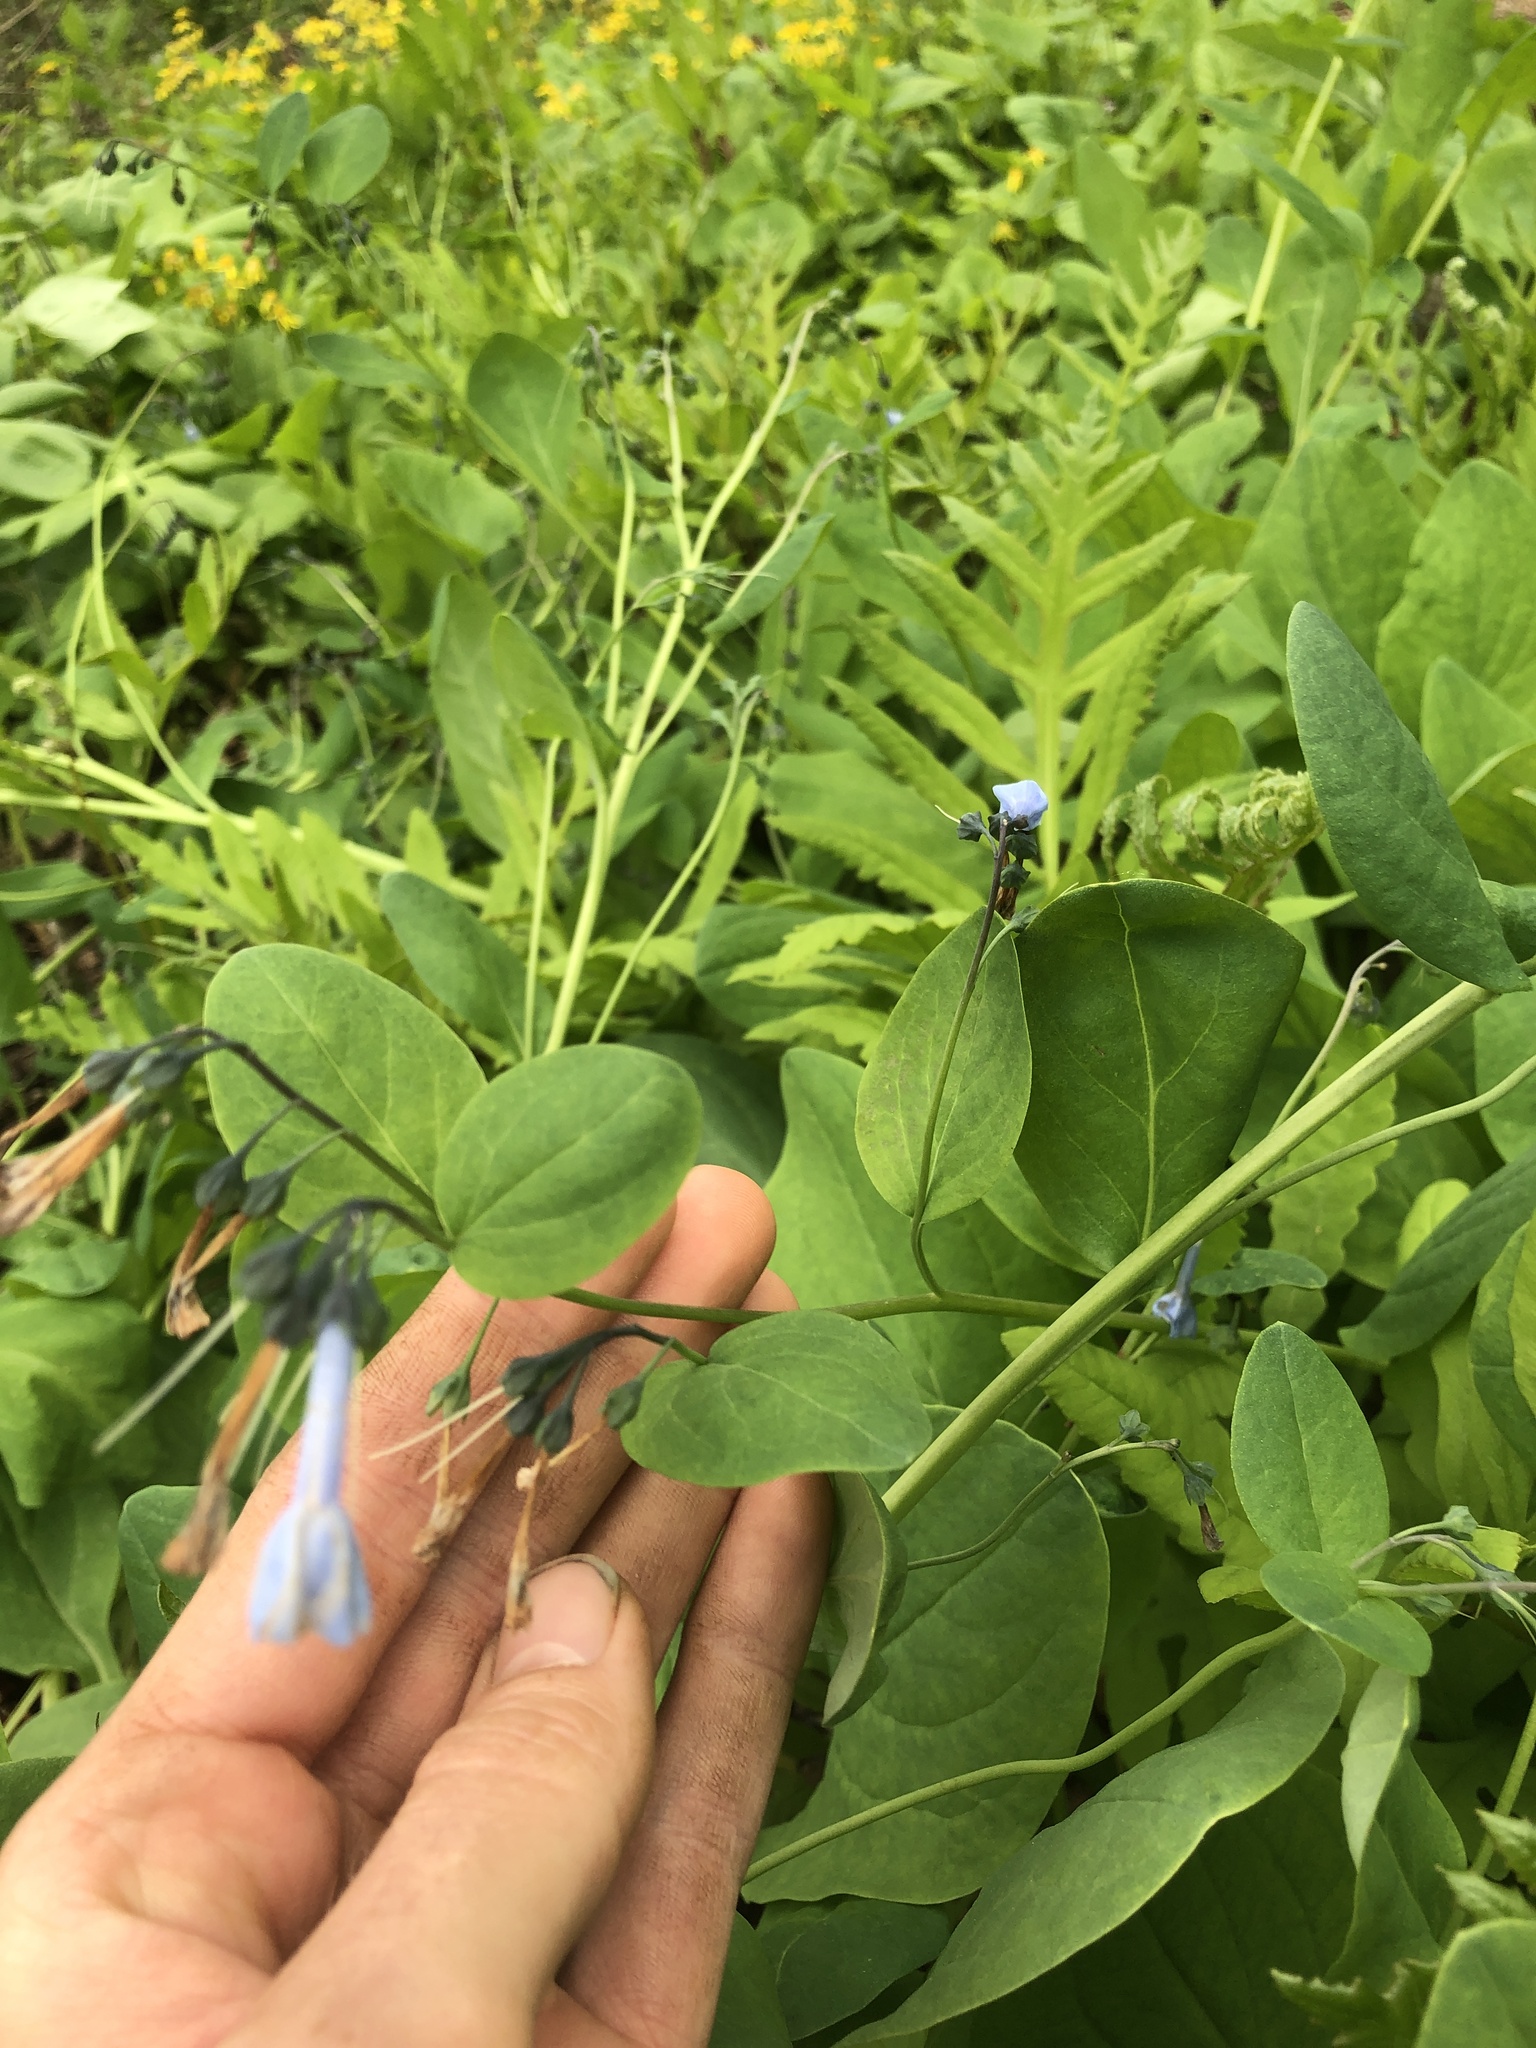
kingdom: Plantae
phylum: Tracheophyta
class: Magnoliopsida
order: Boraginales
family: Boraginaceae
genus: Mertensia
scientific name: Mertensia virginica
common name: Virginia bluebells
